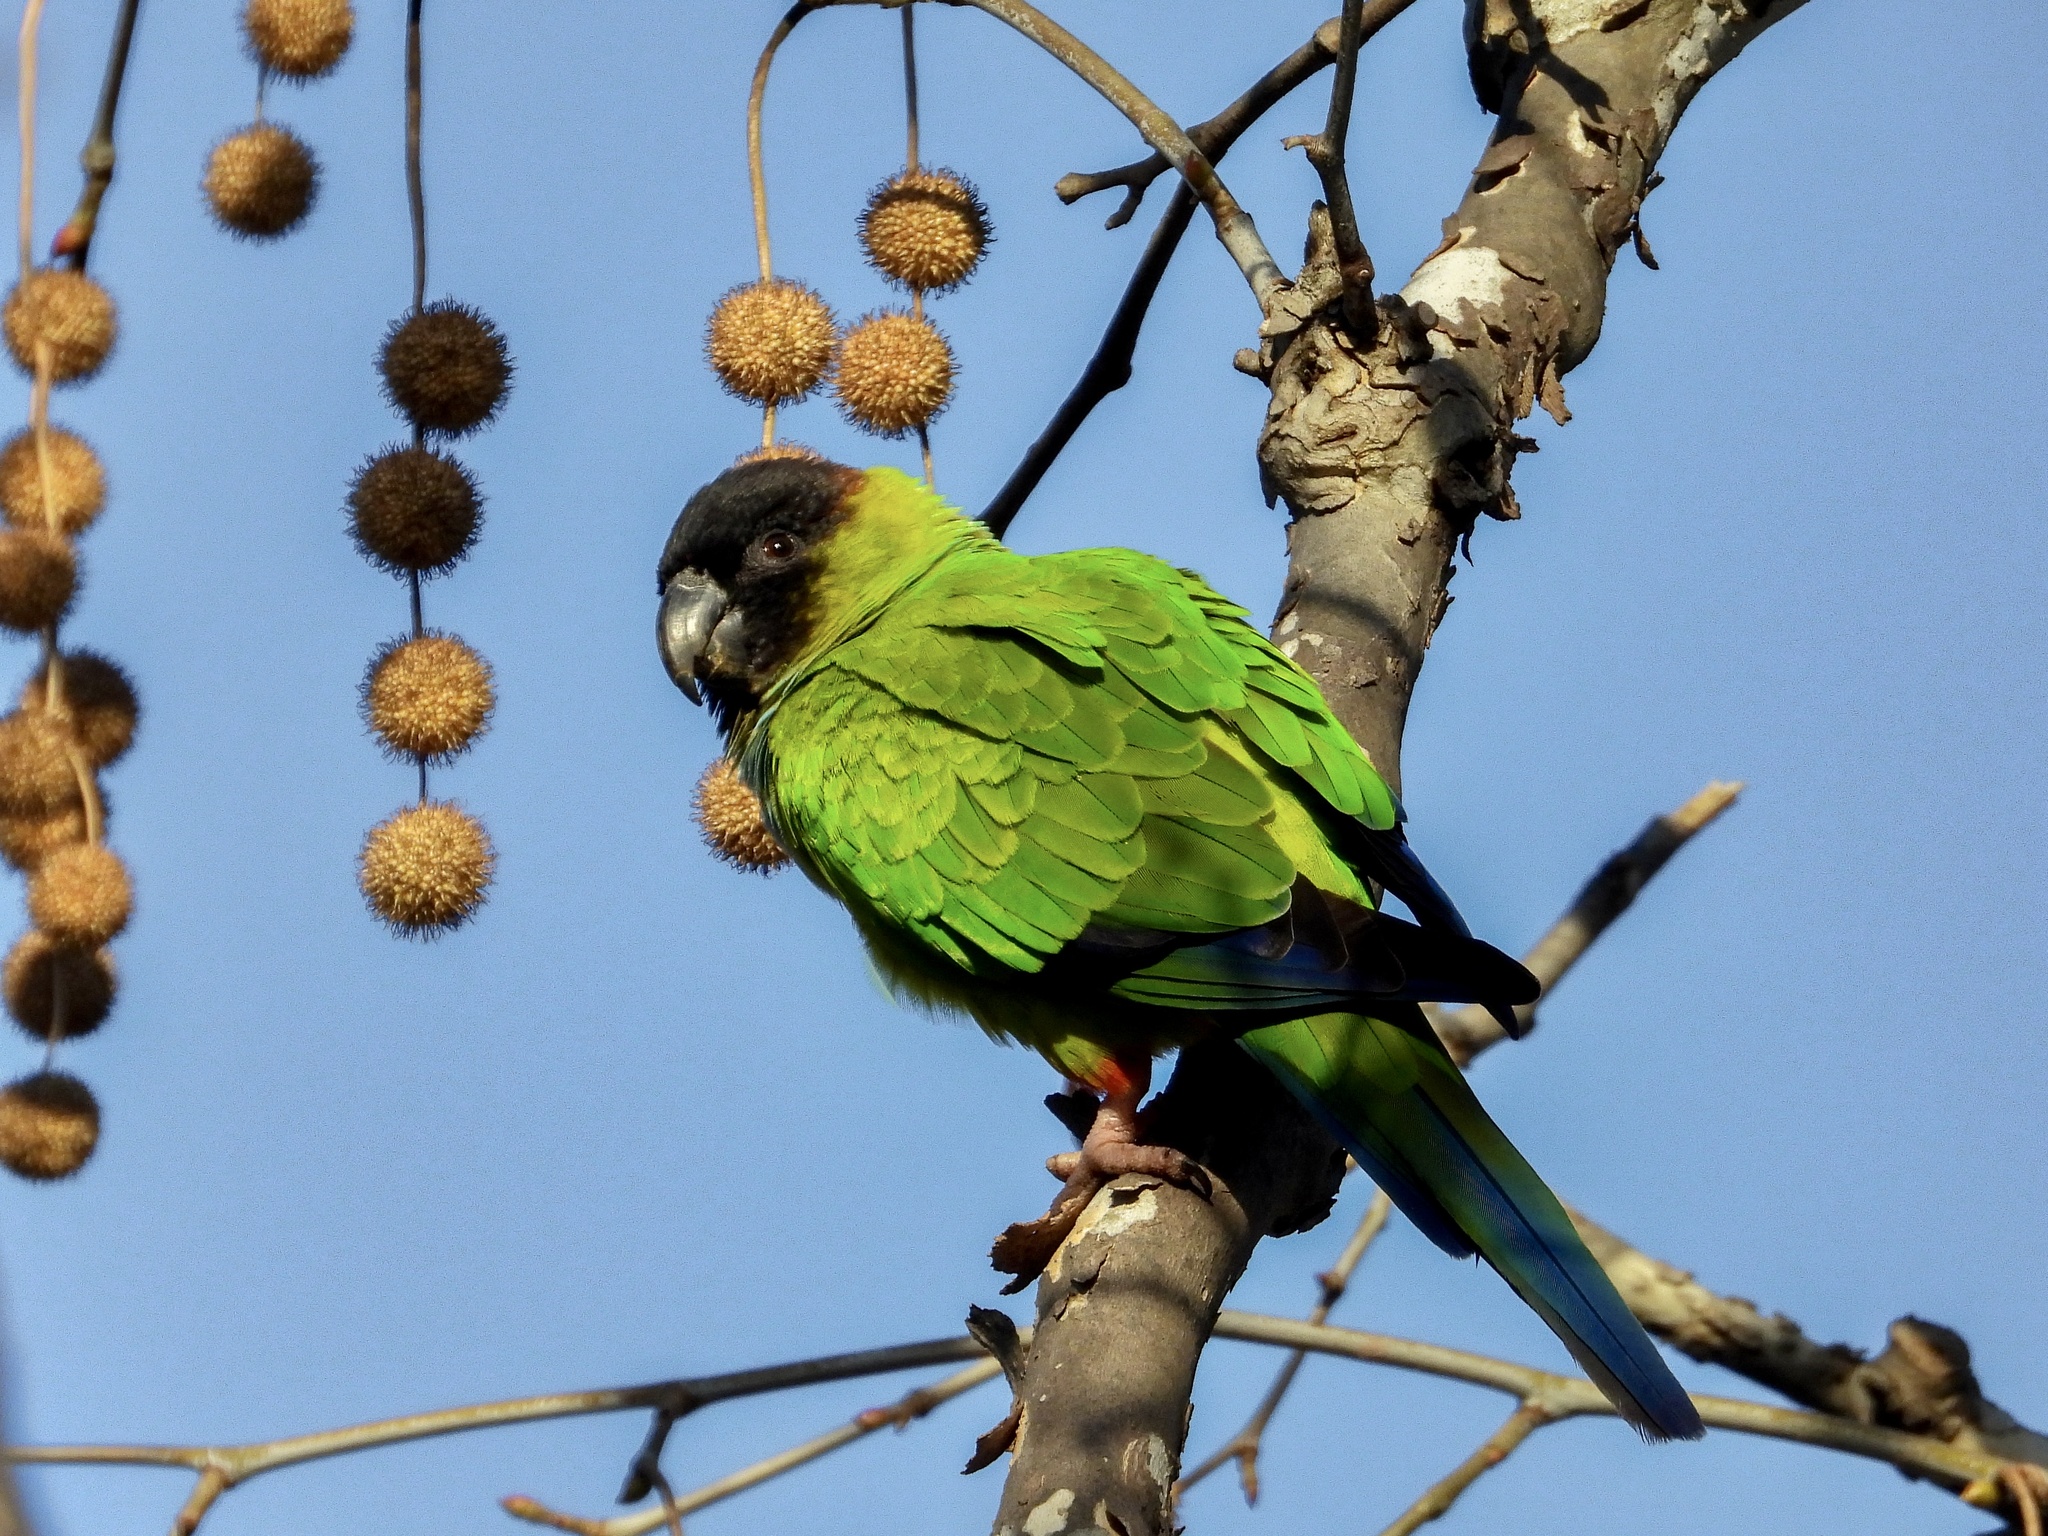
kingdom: Animalia
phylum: Chordata
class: Aves
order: Psittaciformes
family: Psittacidae
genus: Nandayus
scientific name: Nandayus nenday
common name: Nanday parakeet
